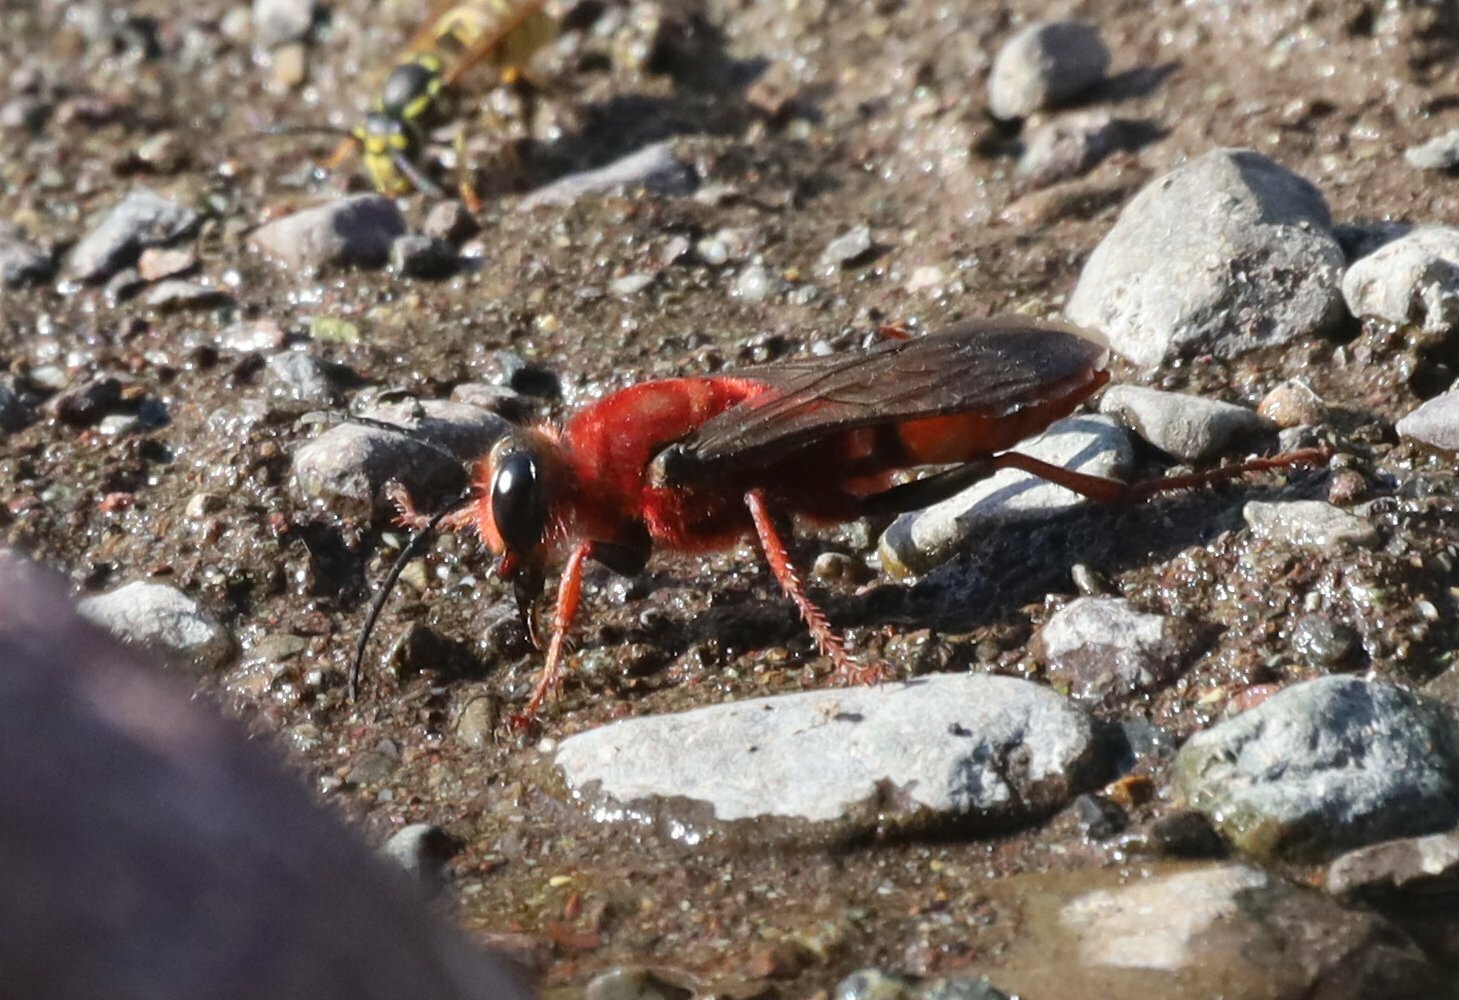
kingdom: Animalia
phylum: Arthropoda
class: Insecta
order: Hymenoptera
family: Sphecidae
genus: Sphex
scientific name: Sphex latreillei
